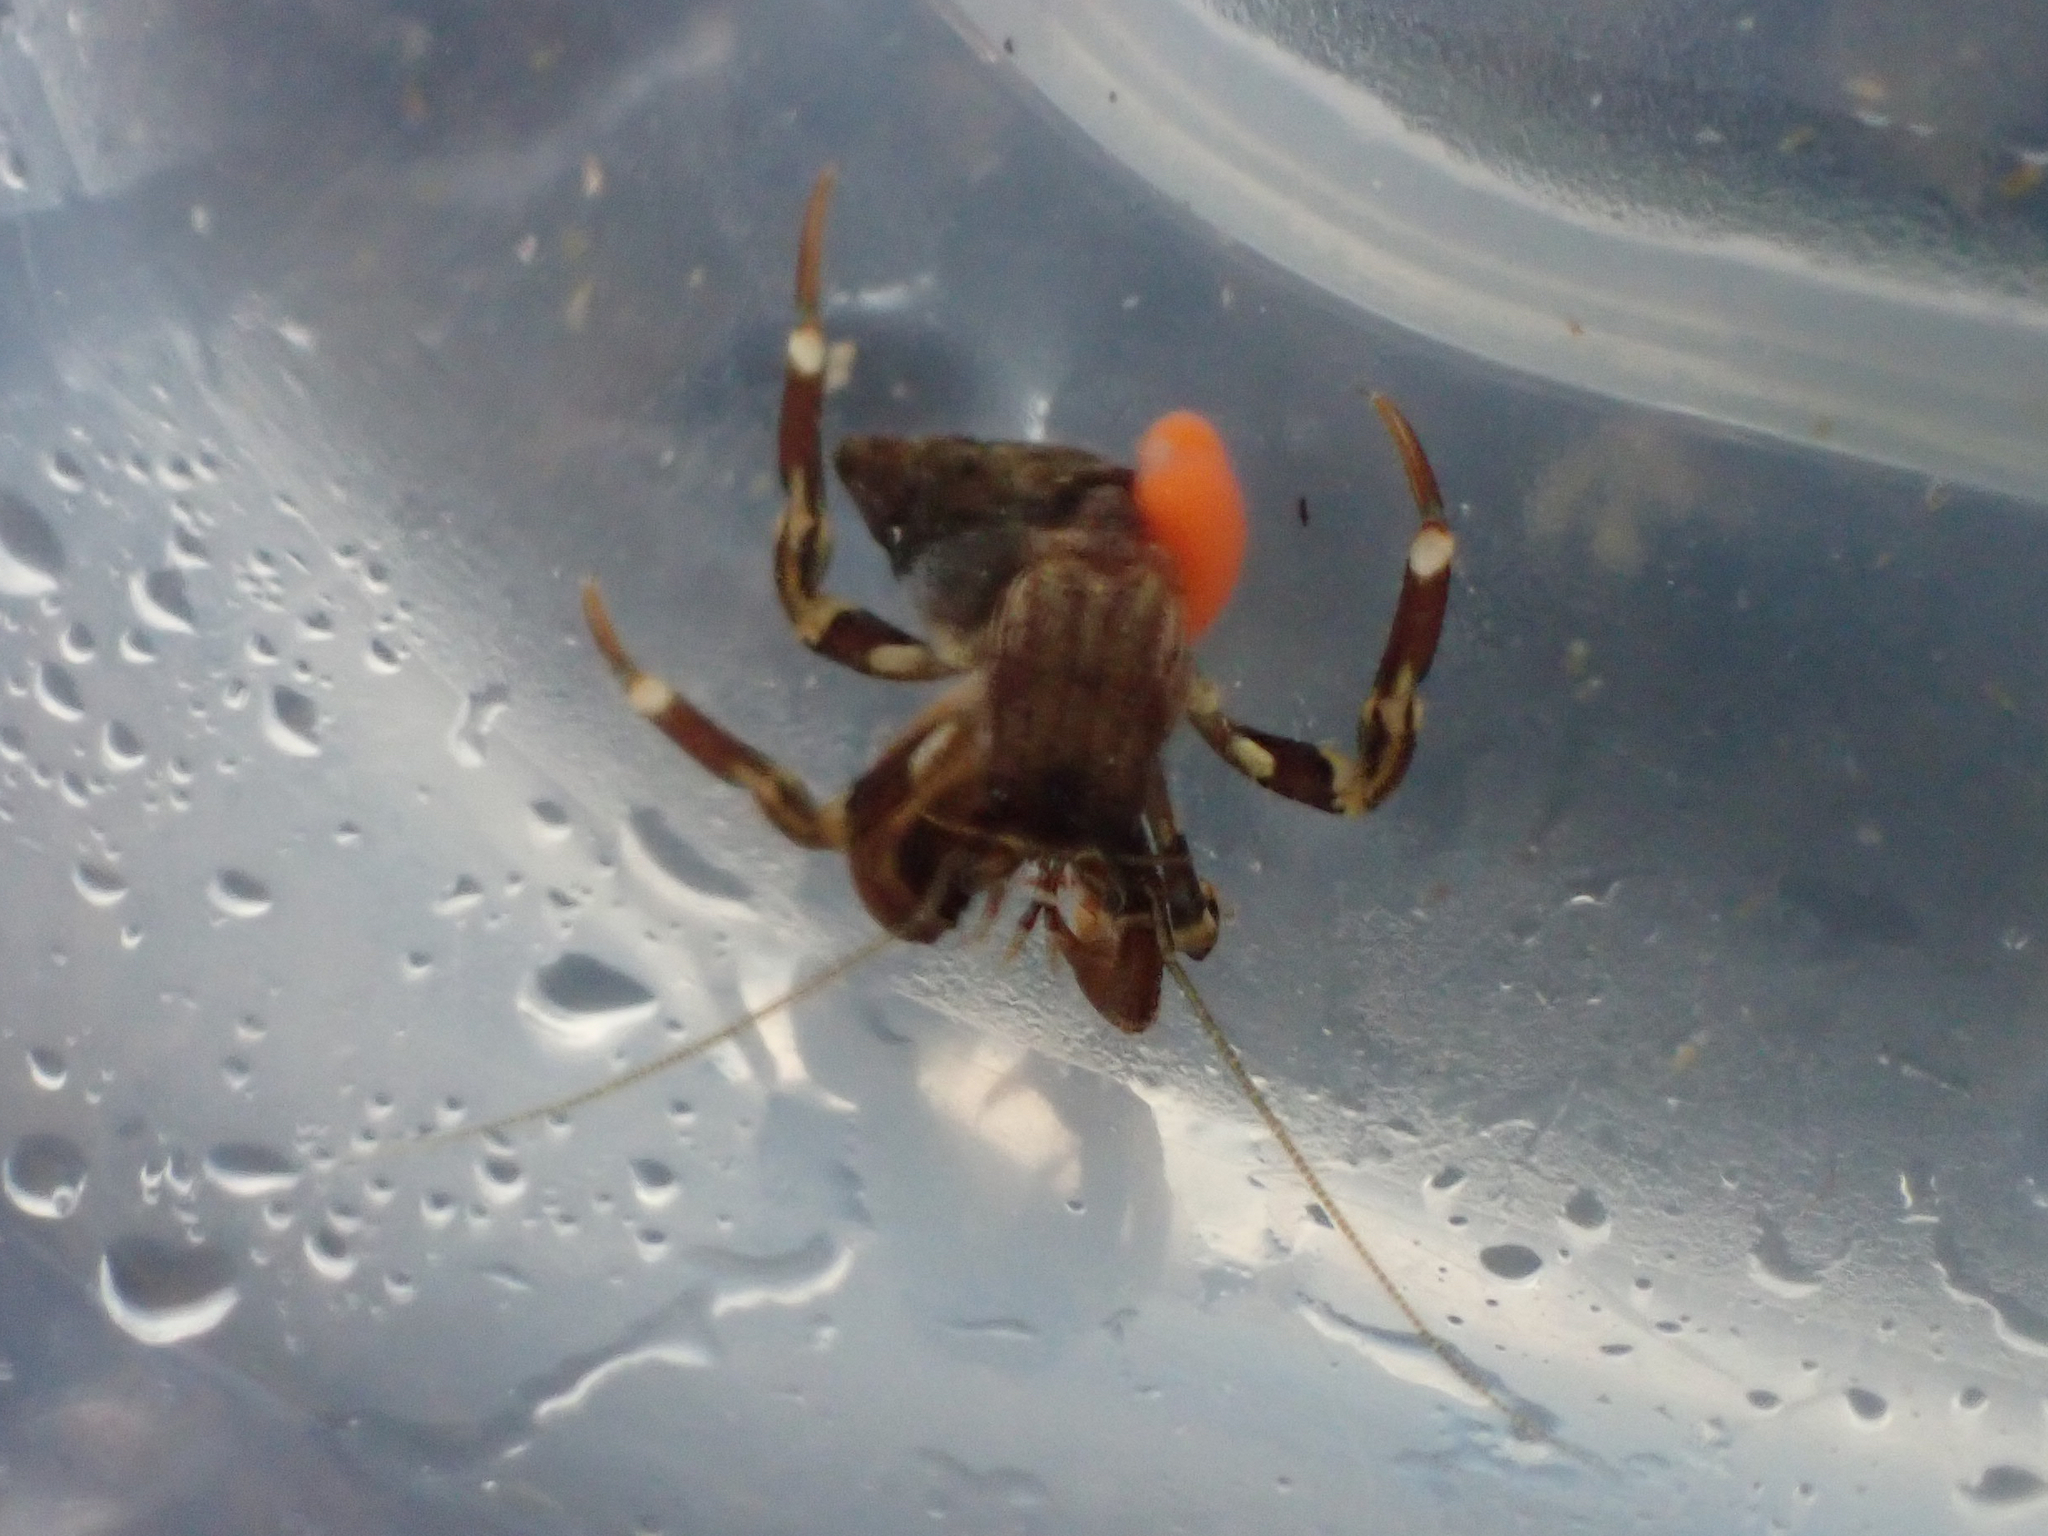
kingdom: Animalia
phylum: Arthropoda
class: Malacostraca
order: Decapoda
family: Paguridae
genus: Pagurus
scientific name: Pagurus hirsutiusculus
